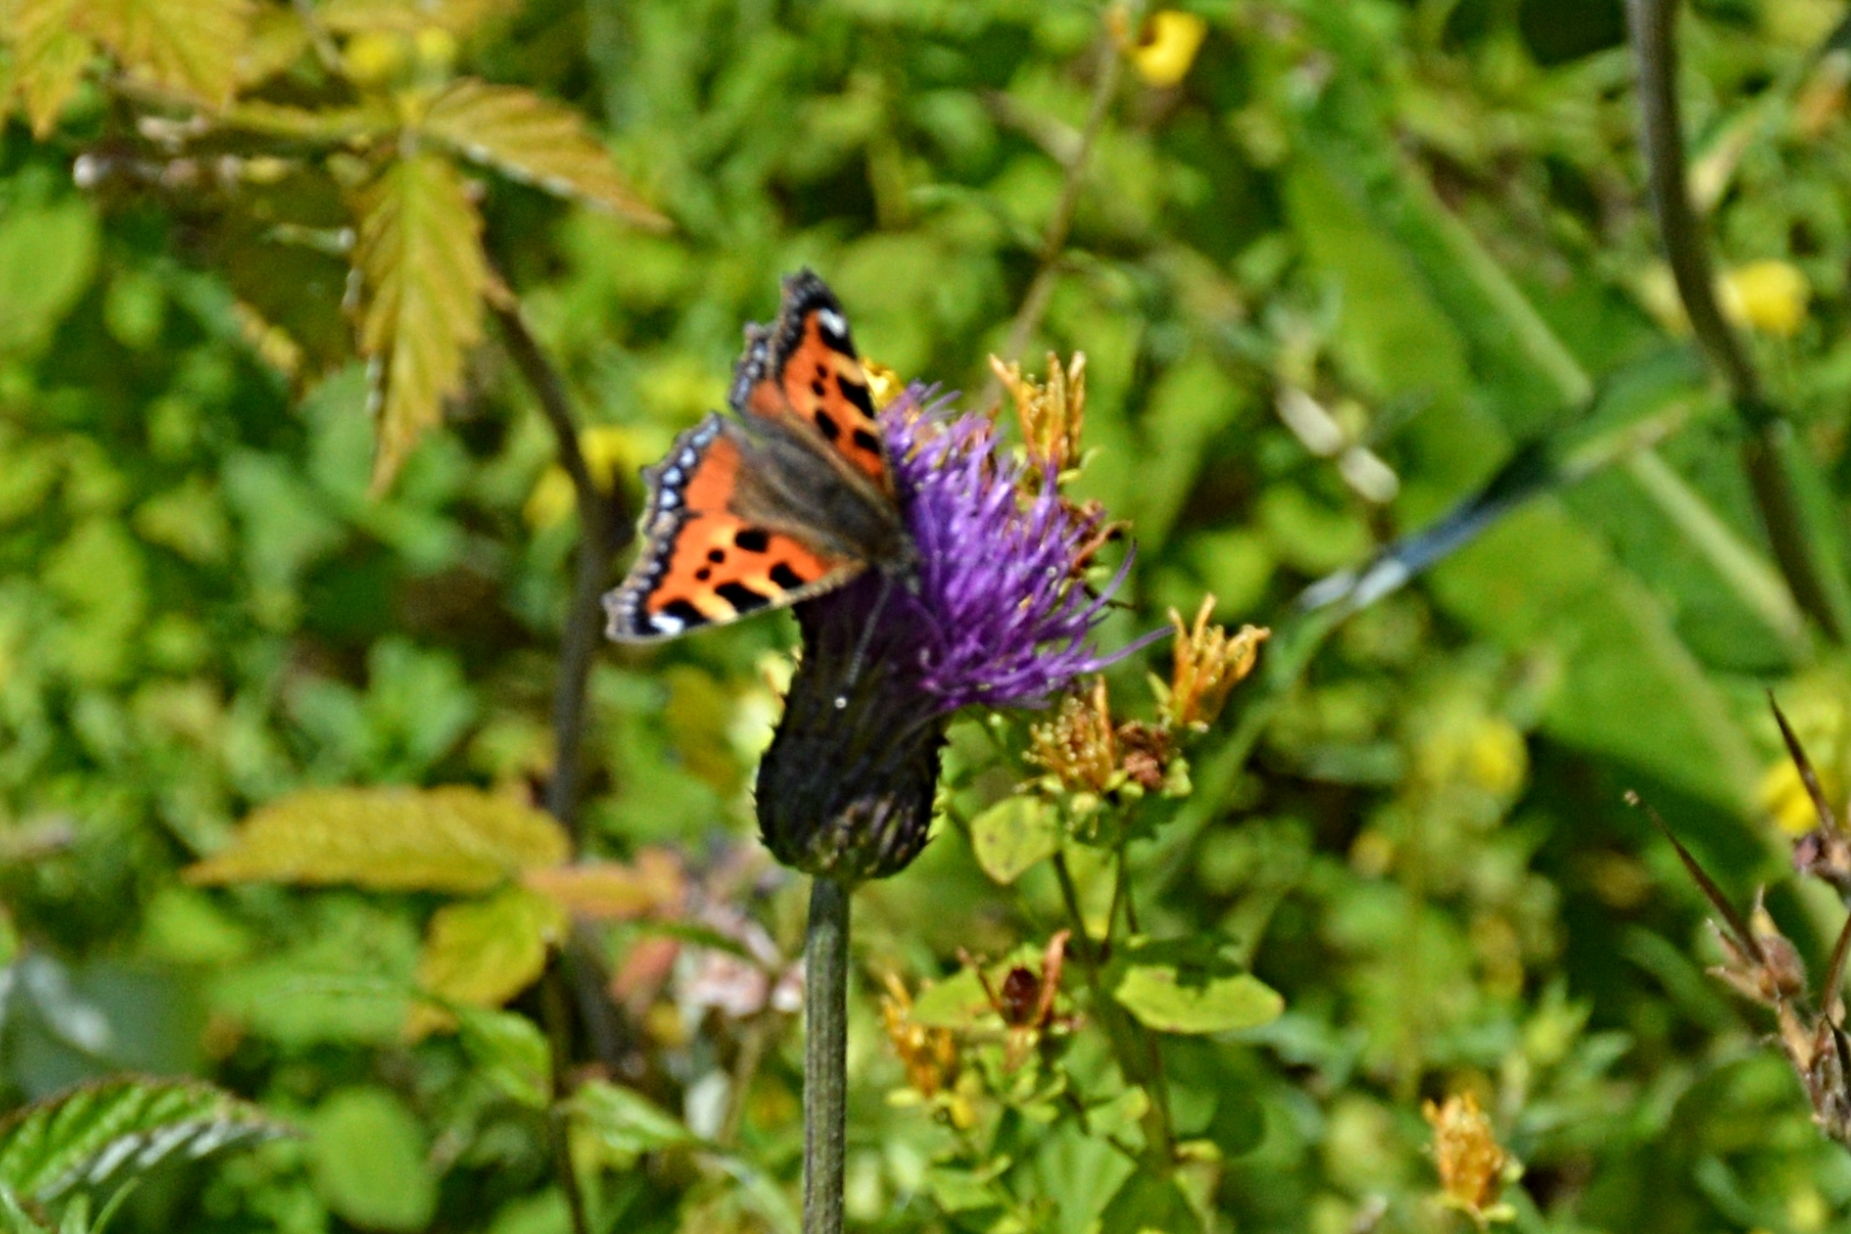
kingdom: Animalia
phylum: Arthropoda
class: Insecta
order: Lepidoptera
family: Nymphalidae
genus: Aglais
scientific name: Aglais urticae
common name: Small tortoiseshell
